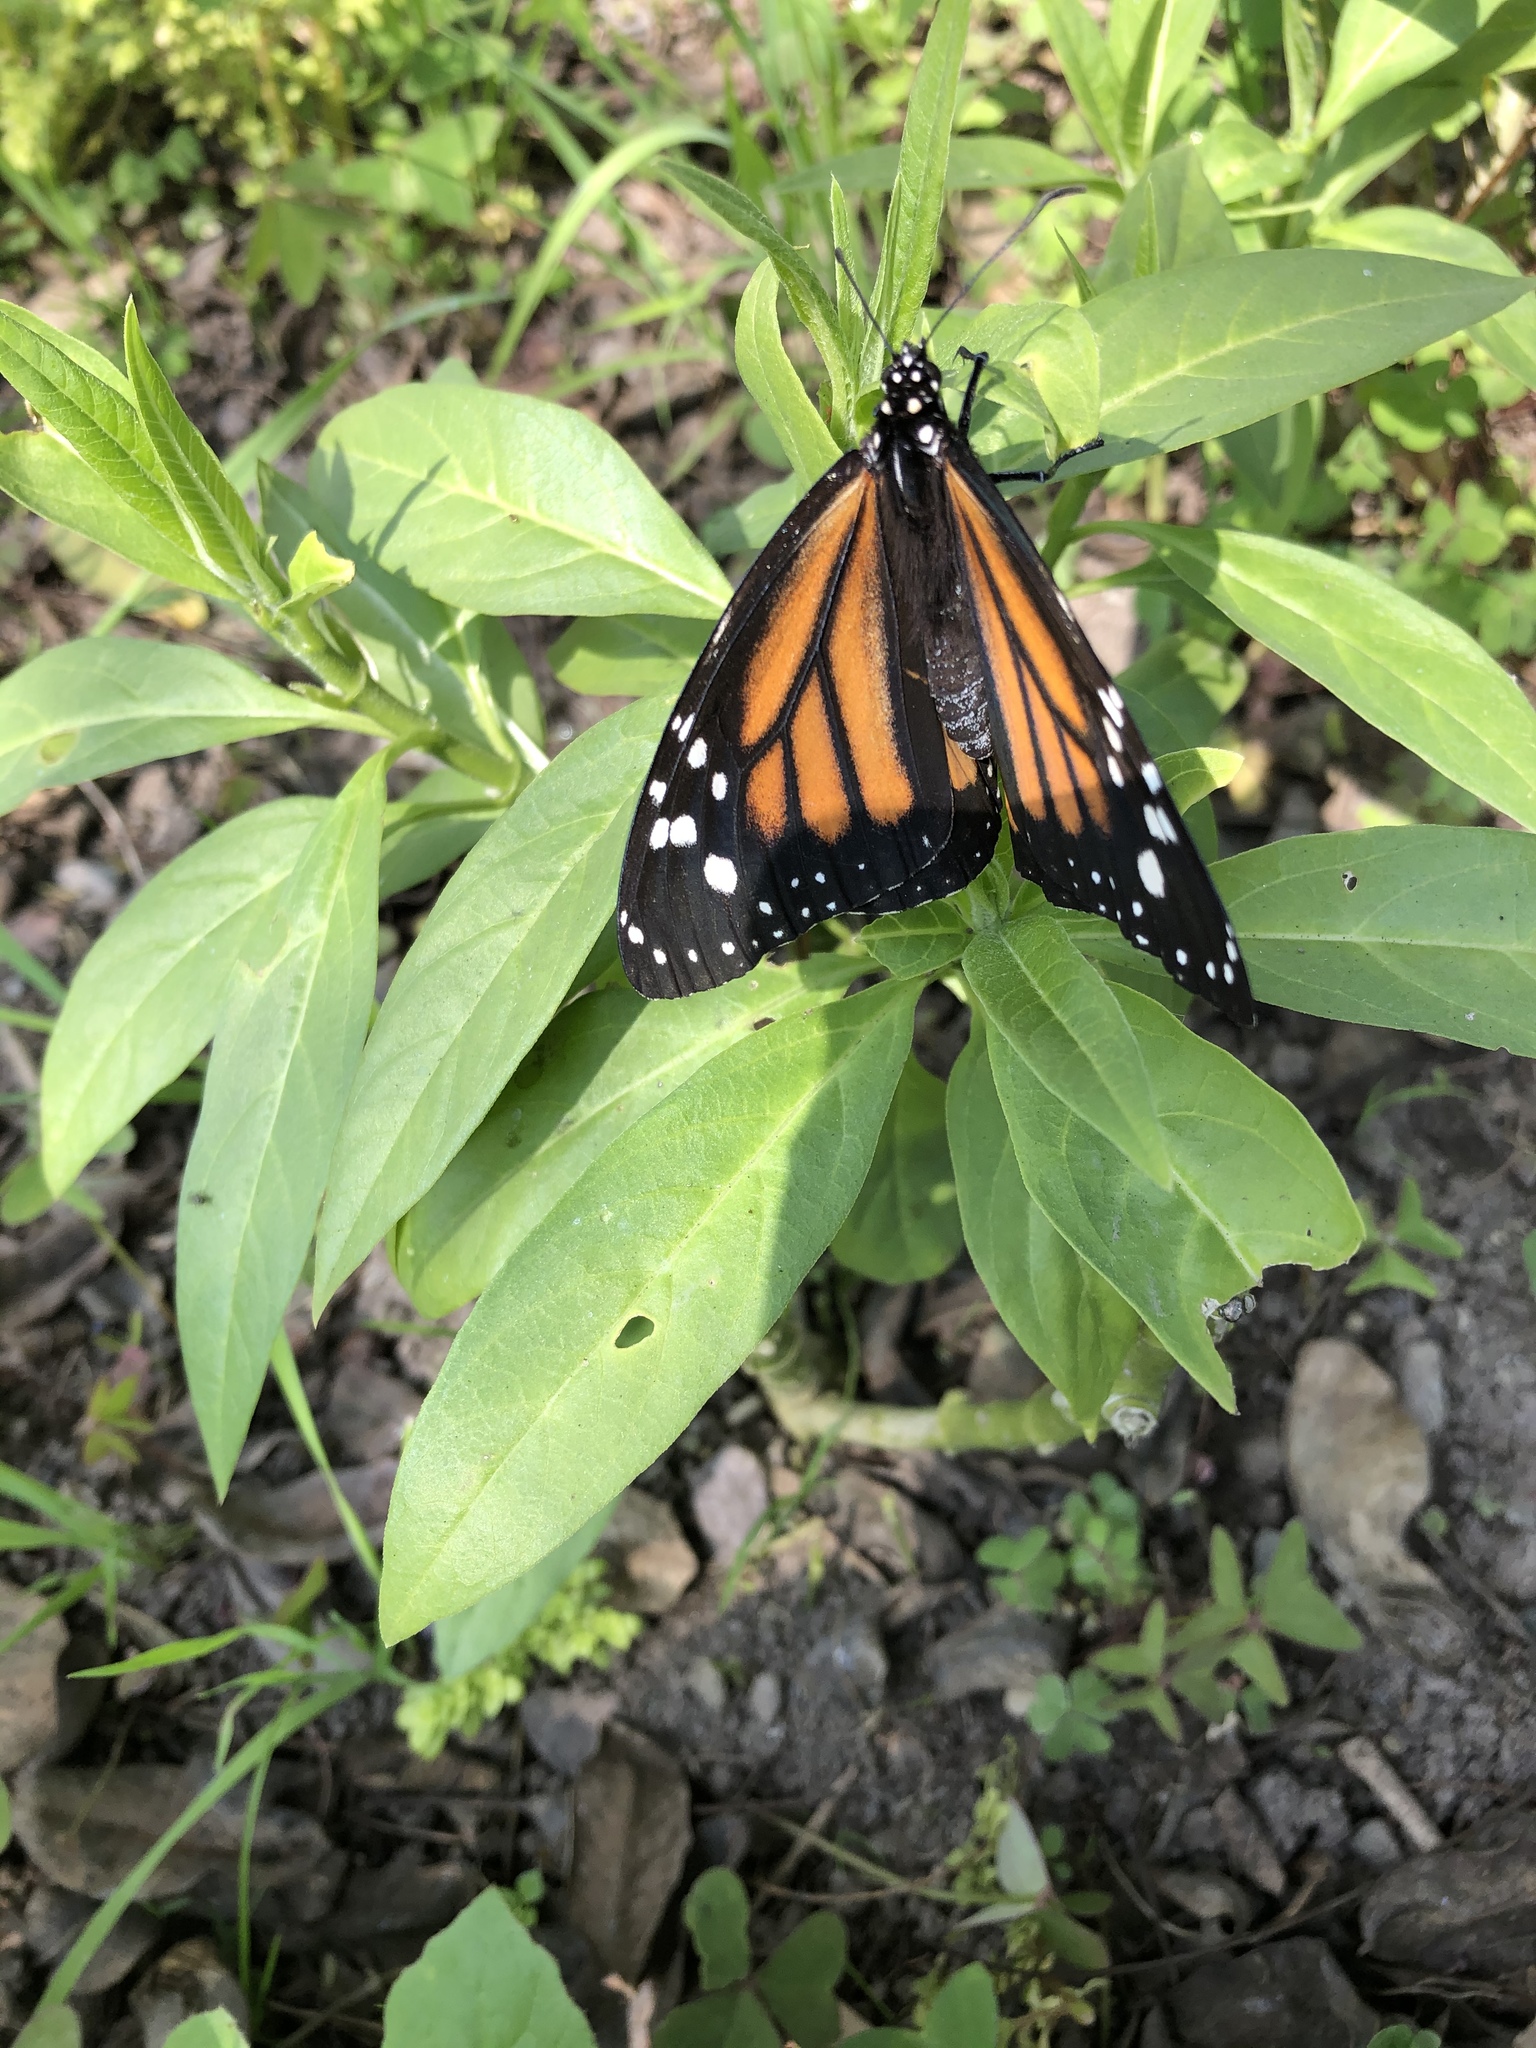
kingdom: Animalia
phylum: Arthropoda
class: Insecta
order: Lepidoptera
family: Nymphalidae
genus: Danaus
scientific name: Danaus plexippus
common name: Monarch
